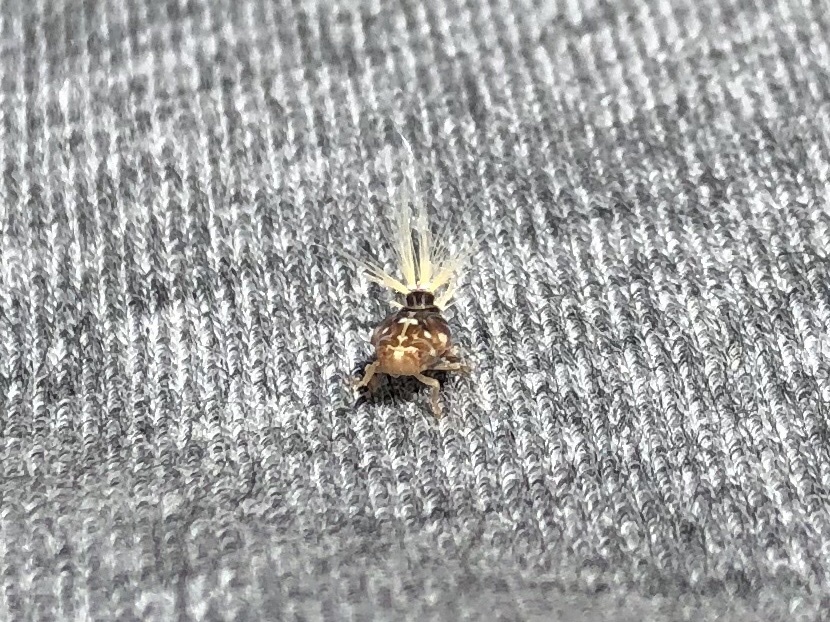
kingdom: Animalia
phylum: Arthropoda
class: Insecta
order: Hemiptera
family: Ricaniidae
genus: Scolypopa
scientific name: Scolypopa australis
